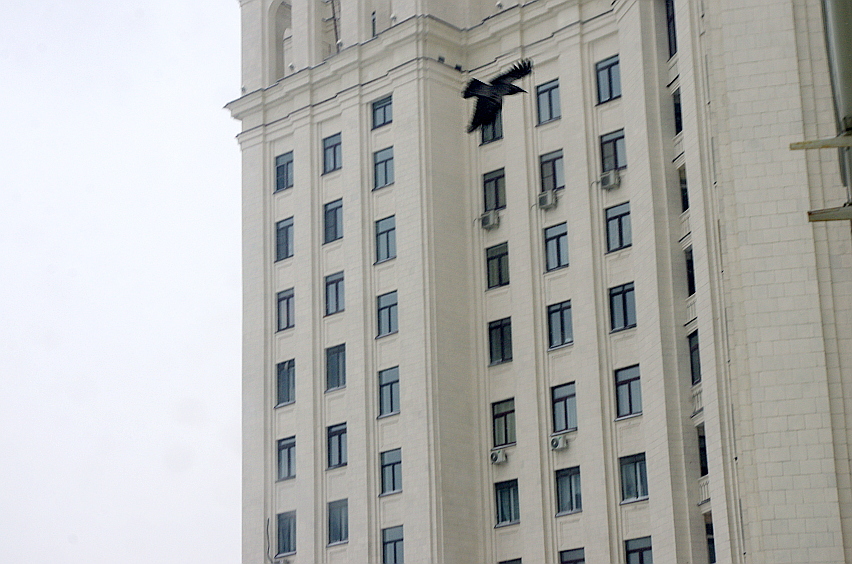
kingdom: Animalia
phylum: Chordata
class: Aves
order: Passeriformes
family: Corvidae
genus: Corvus
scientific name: Corvus cornix
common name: Hooded crow
